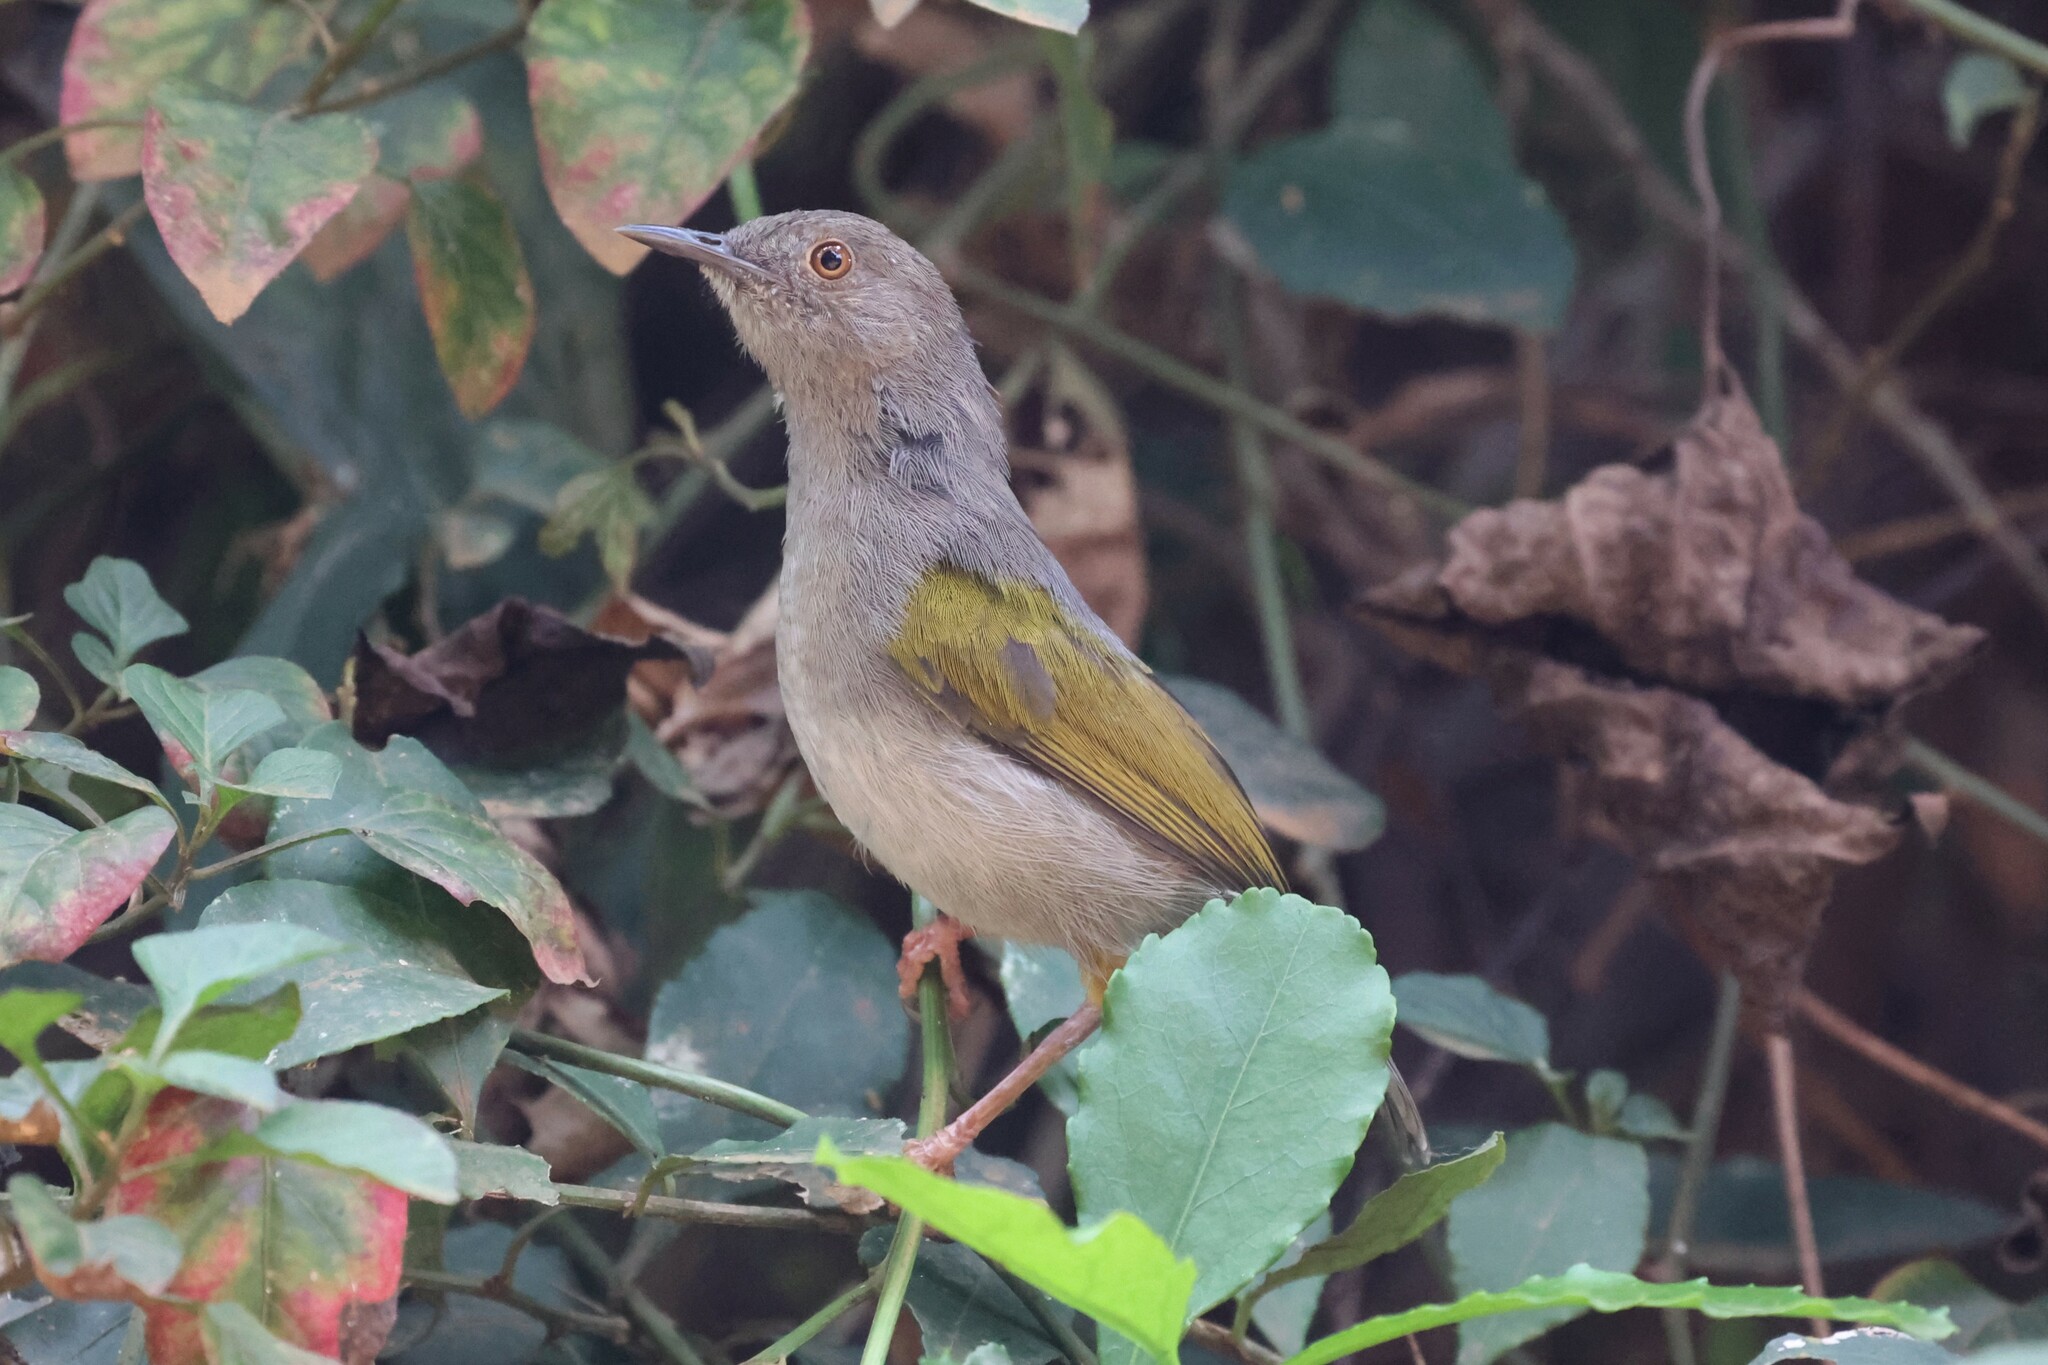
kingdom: Animalia
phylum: Chordata
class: Aves
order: Passeriformes
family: Cisticolidae
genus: Camaroptera
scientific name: Camaroptera brachyura
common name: Green-backed camaroptera
